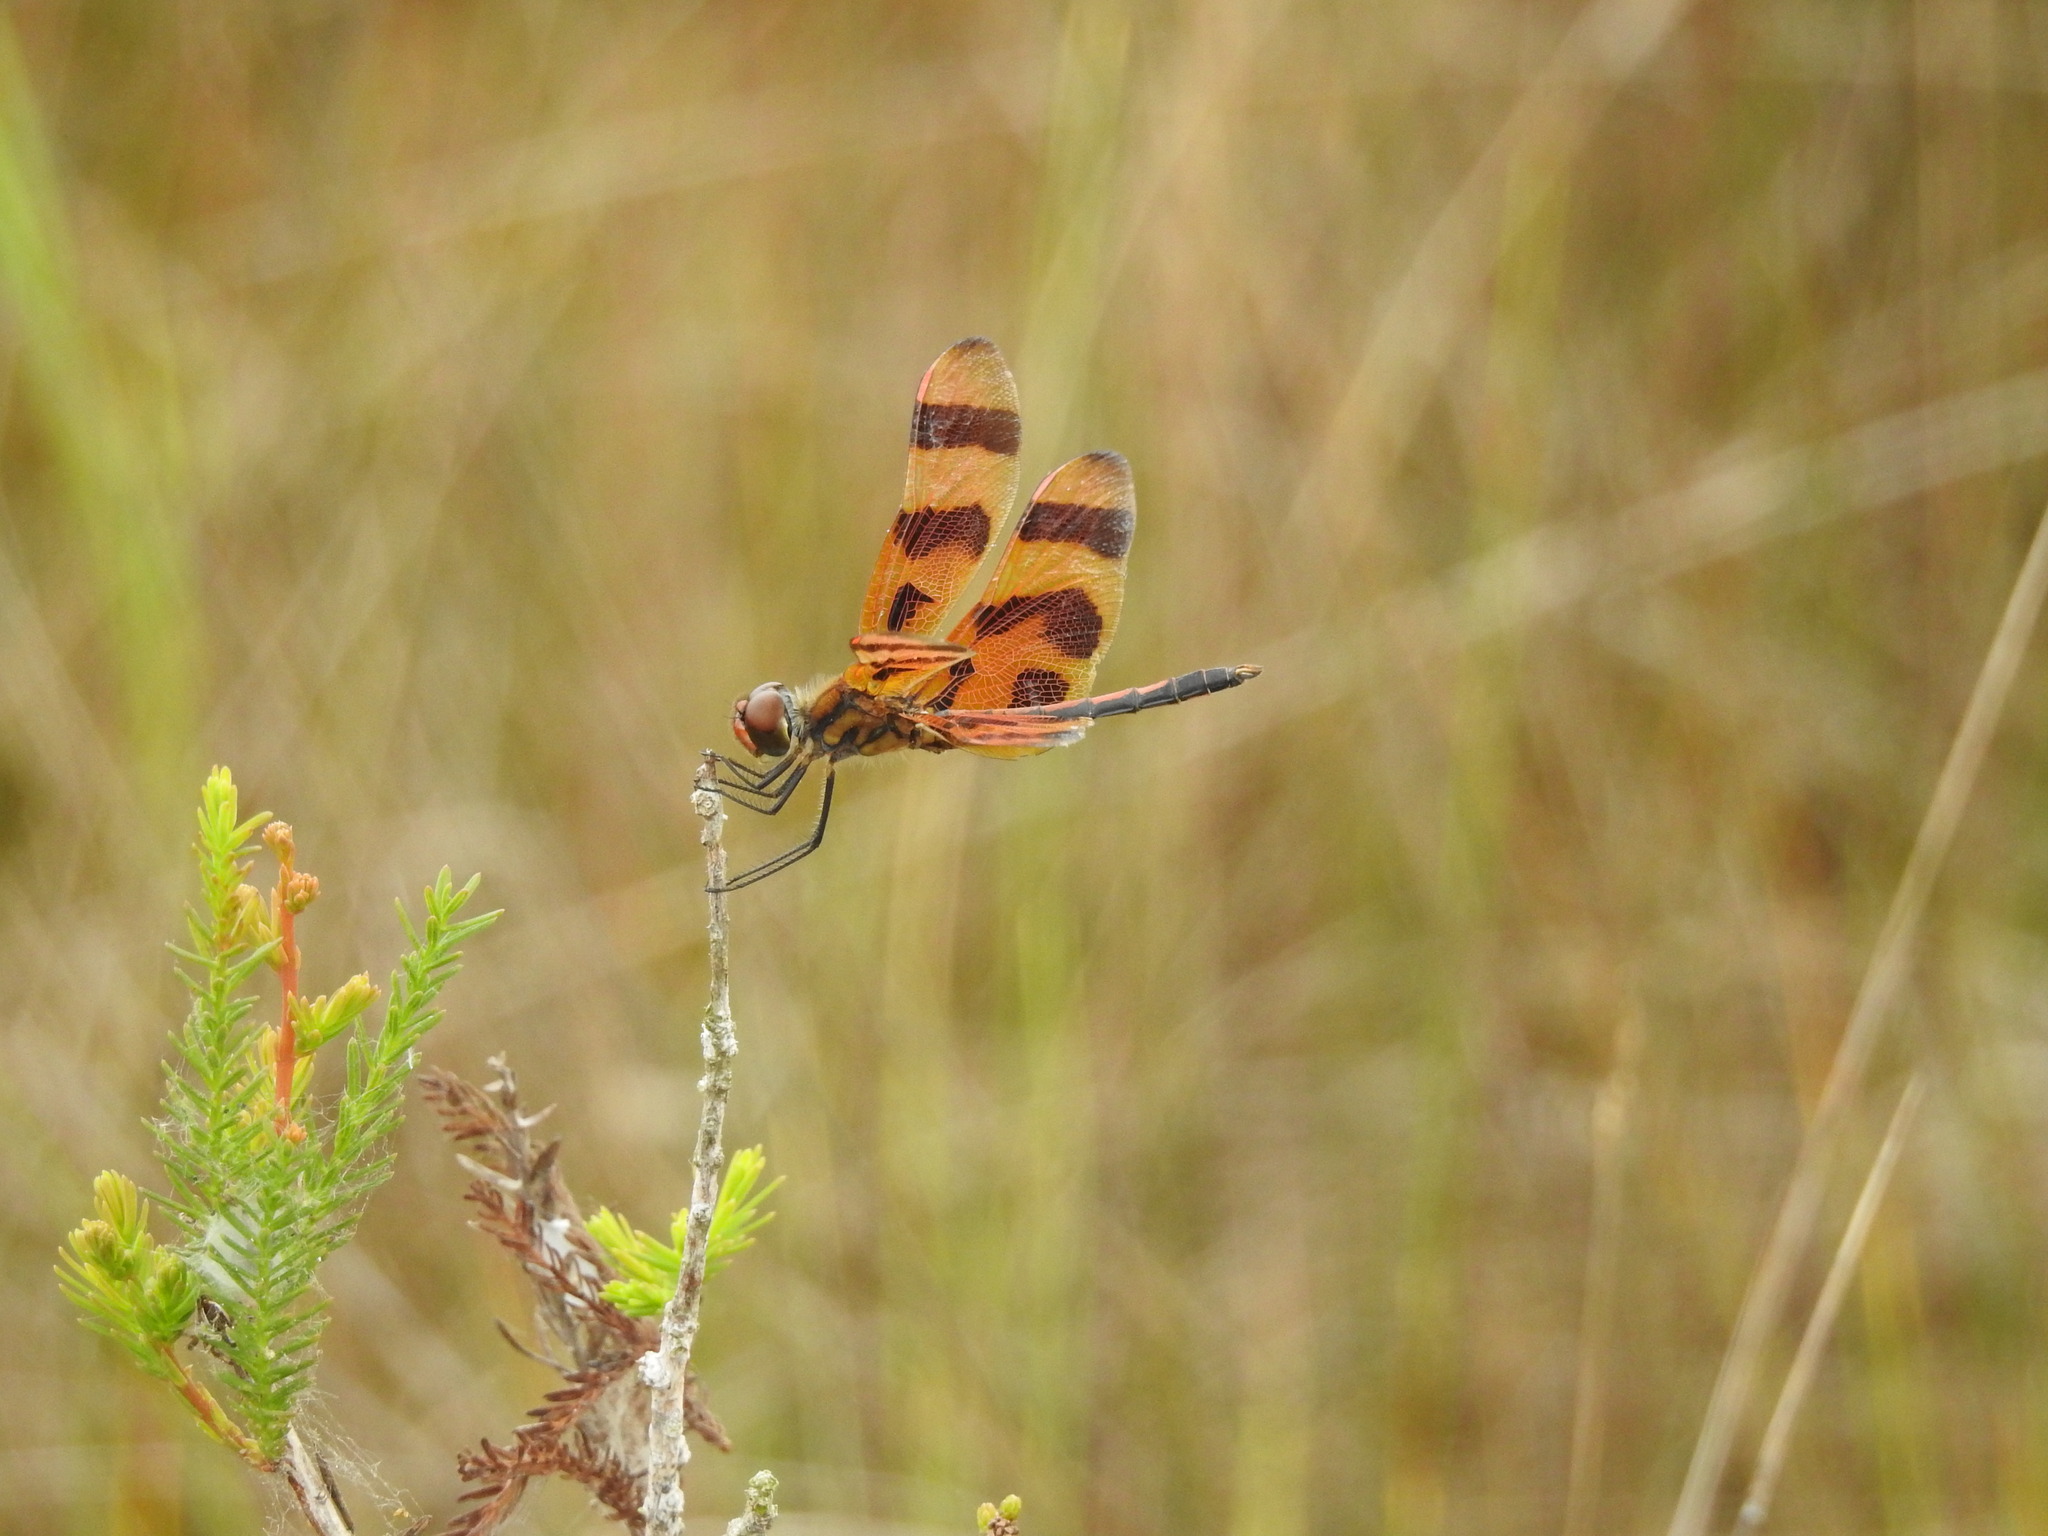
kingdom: Animalia
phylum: Arthropoda
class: Insecta
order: Odonata
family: Libellulidae
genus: Celithemis
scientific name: Celithemis eponina
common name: Halloween pennant
